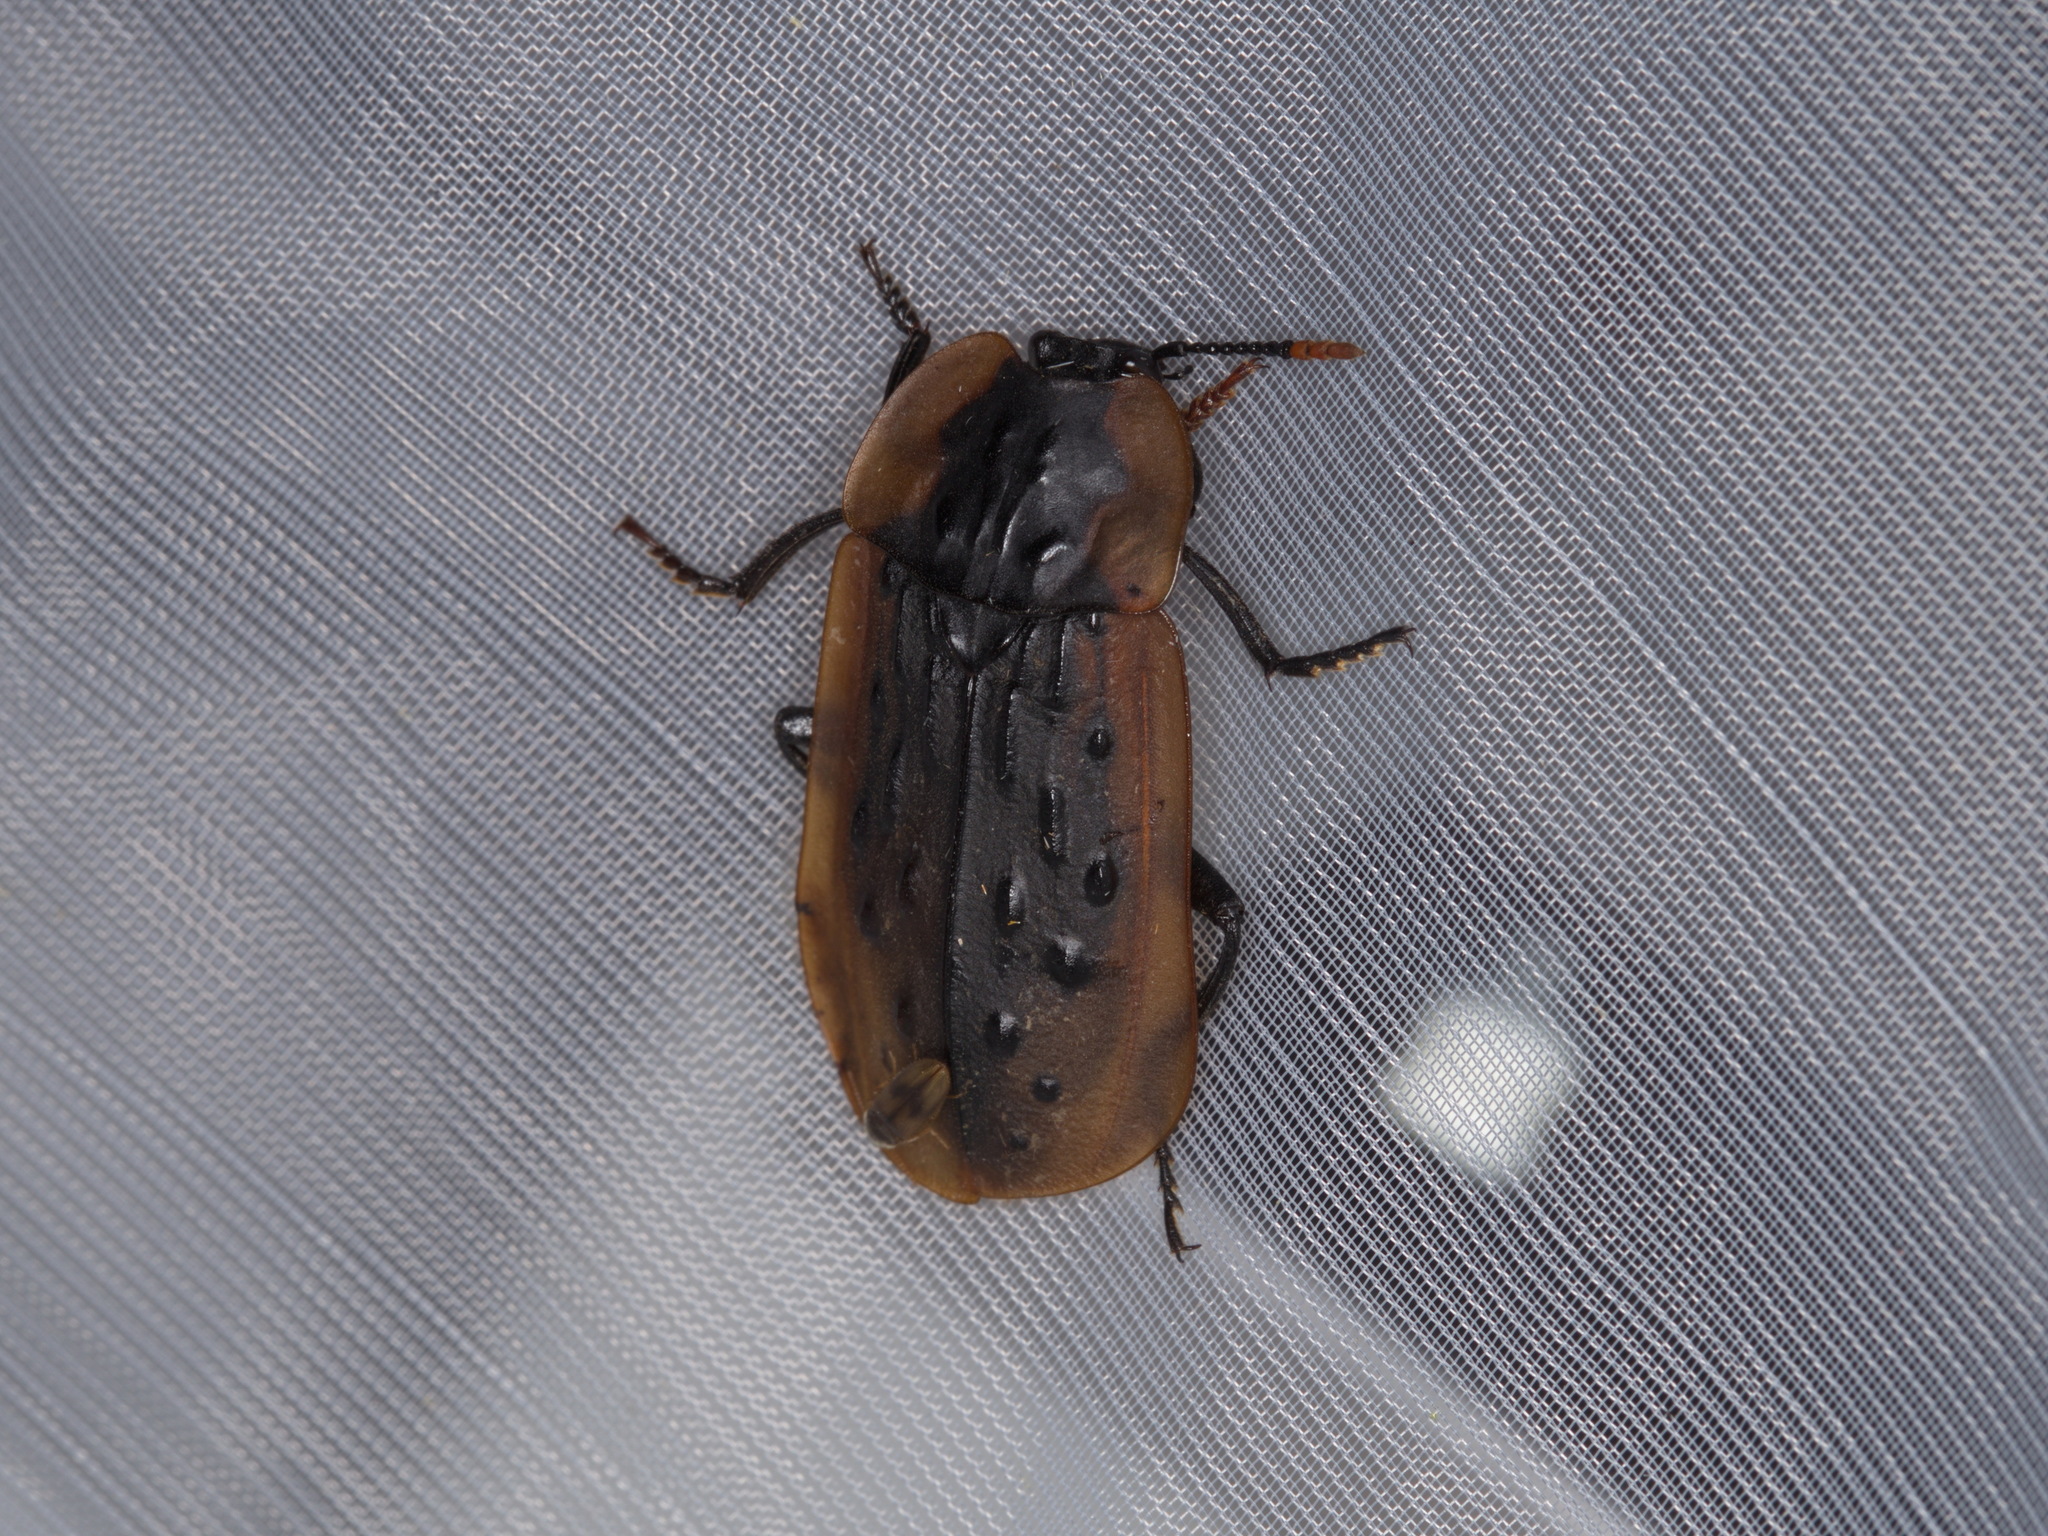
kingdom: Animalia
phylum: Arthropoda
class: Insecta
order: Coleoptera
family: Staphylinidae
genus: Ptomaphila
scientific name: Ptomaphila lacrymosa
